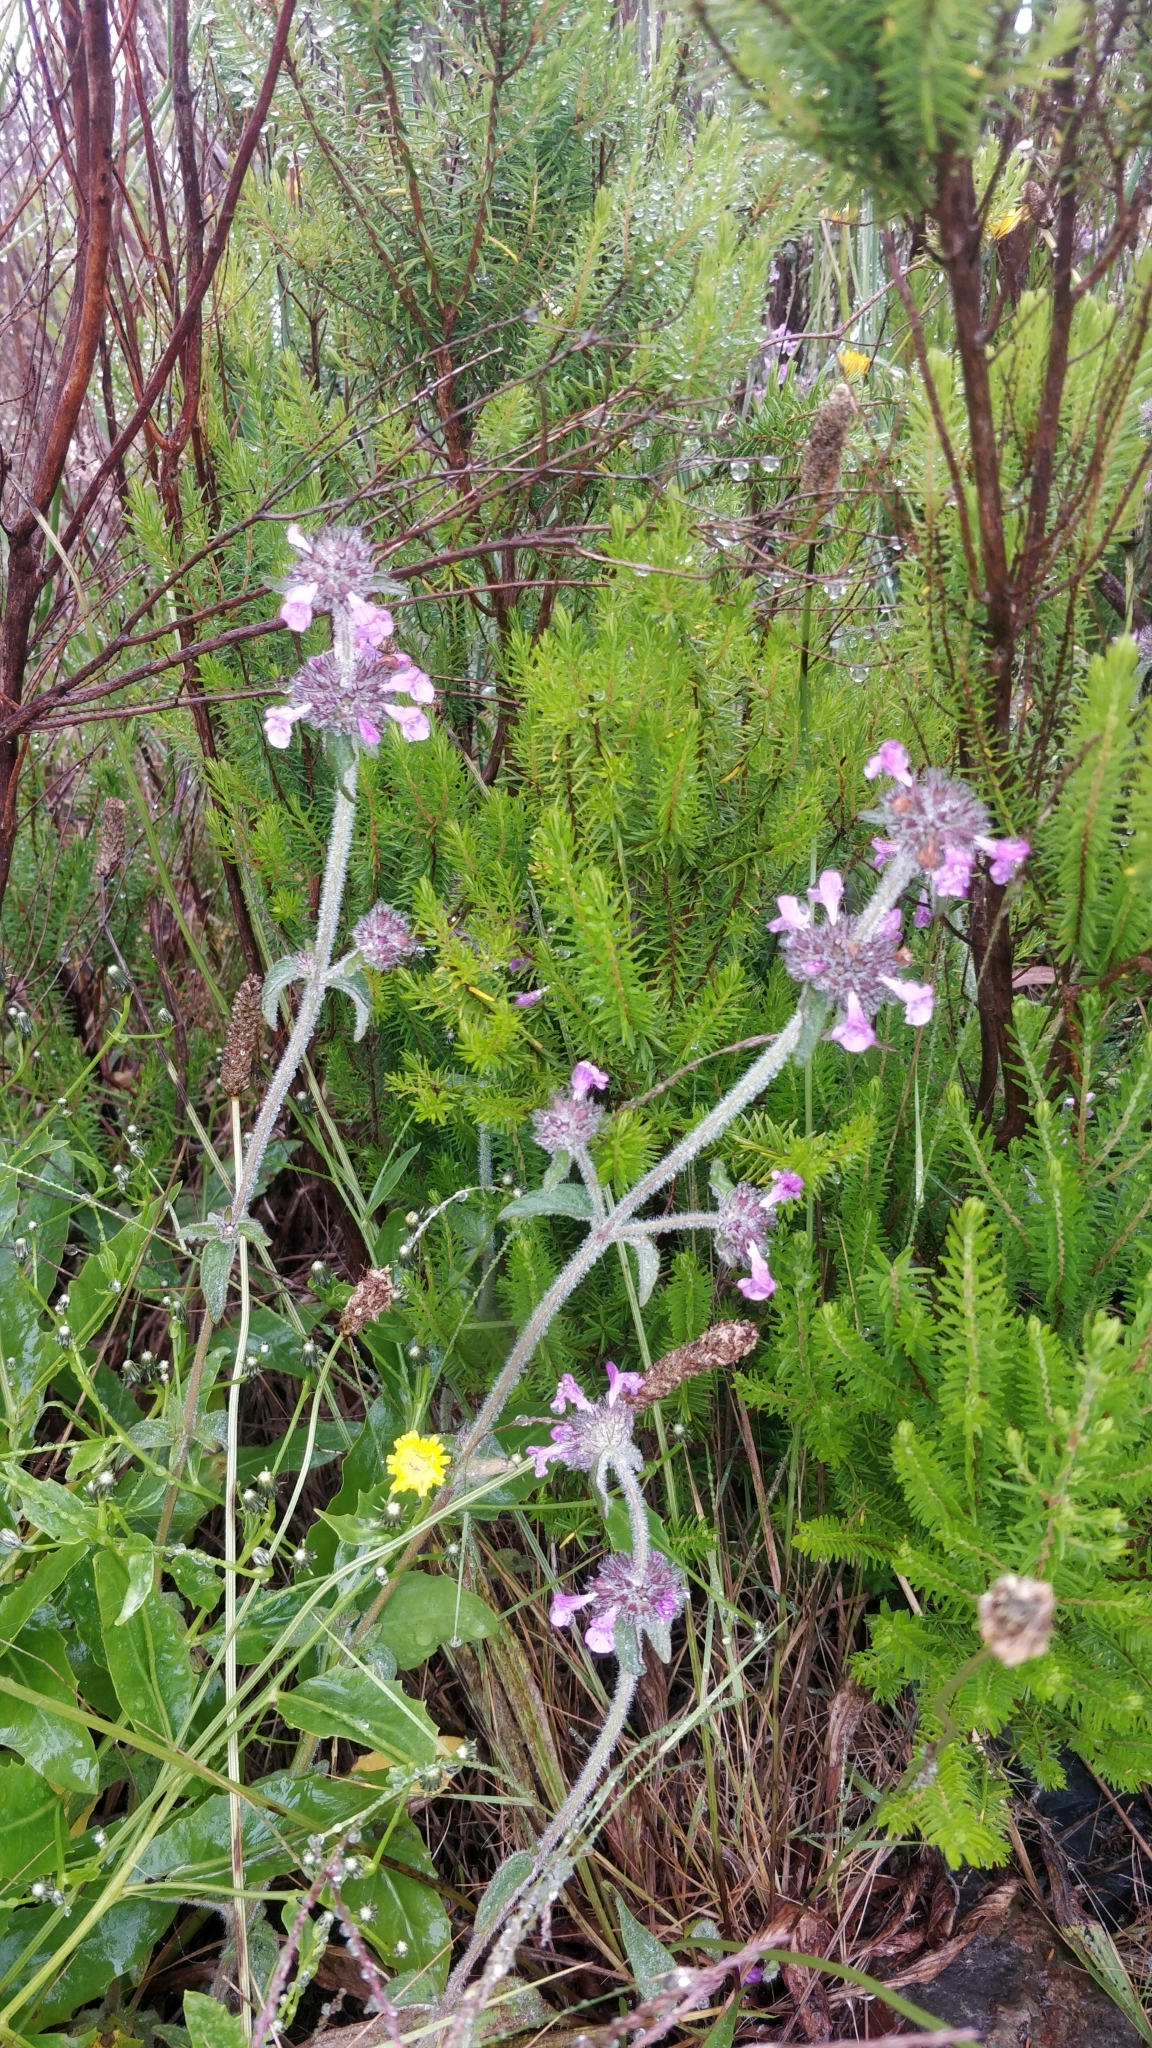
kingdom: Plantae
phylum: Tracheophyta
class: Magnoliopsida
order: Lamiales
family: Lamiaceae
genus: Clinopodium
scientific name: Clinopodium vulgare
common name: Wild basil
